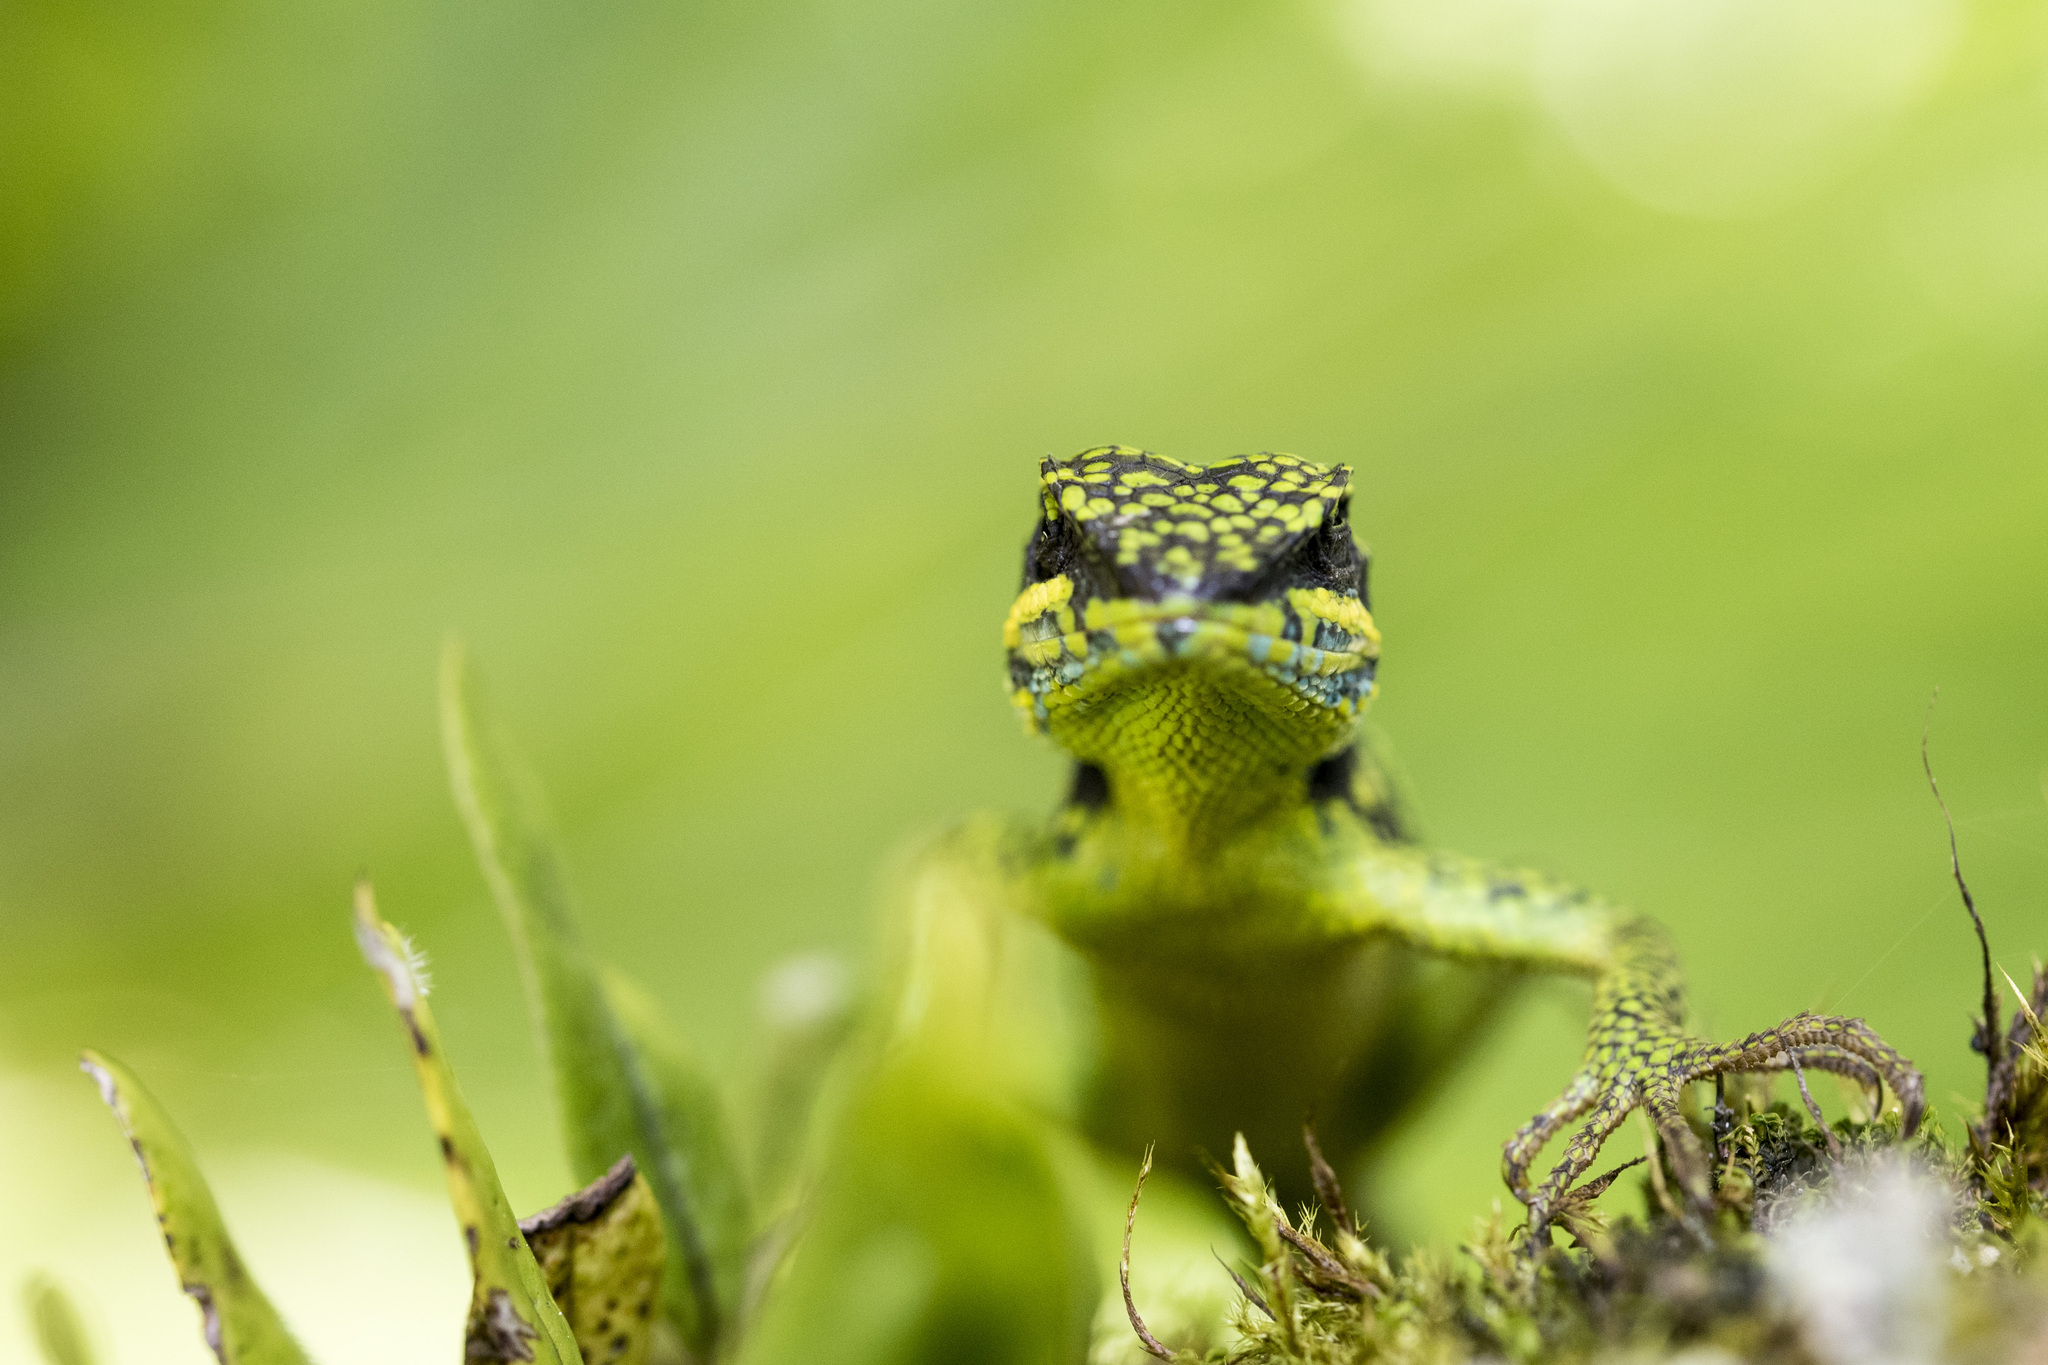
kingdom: Animalia
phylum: Chordata
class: Squamata
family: Agamidae
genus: Diploderma
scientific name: Diploderma luei
